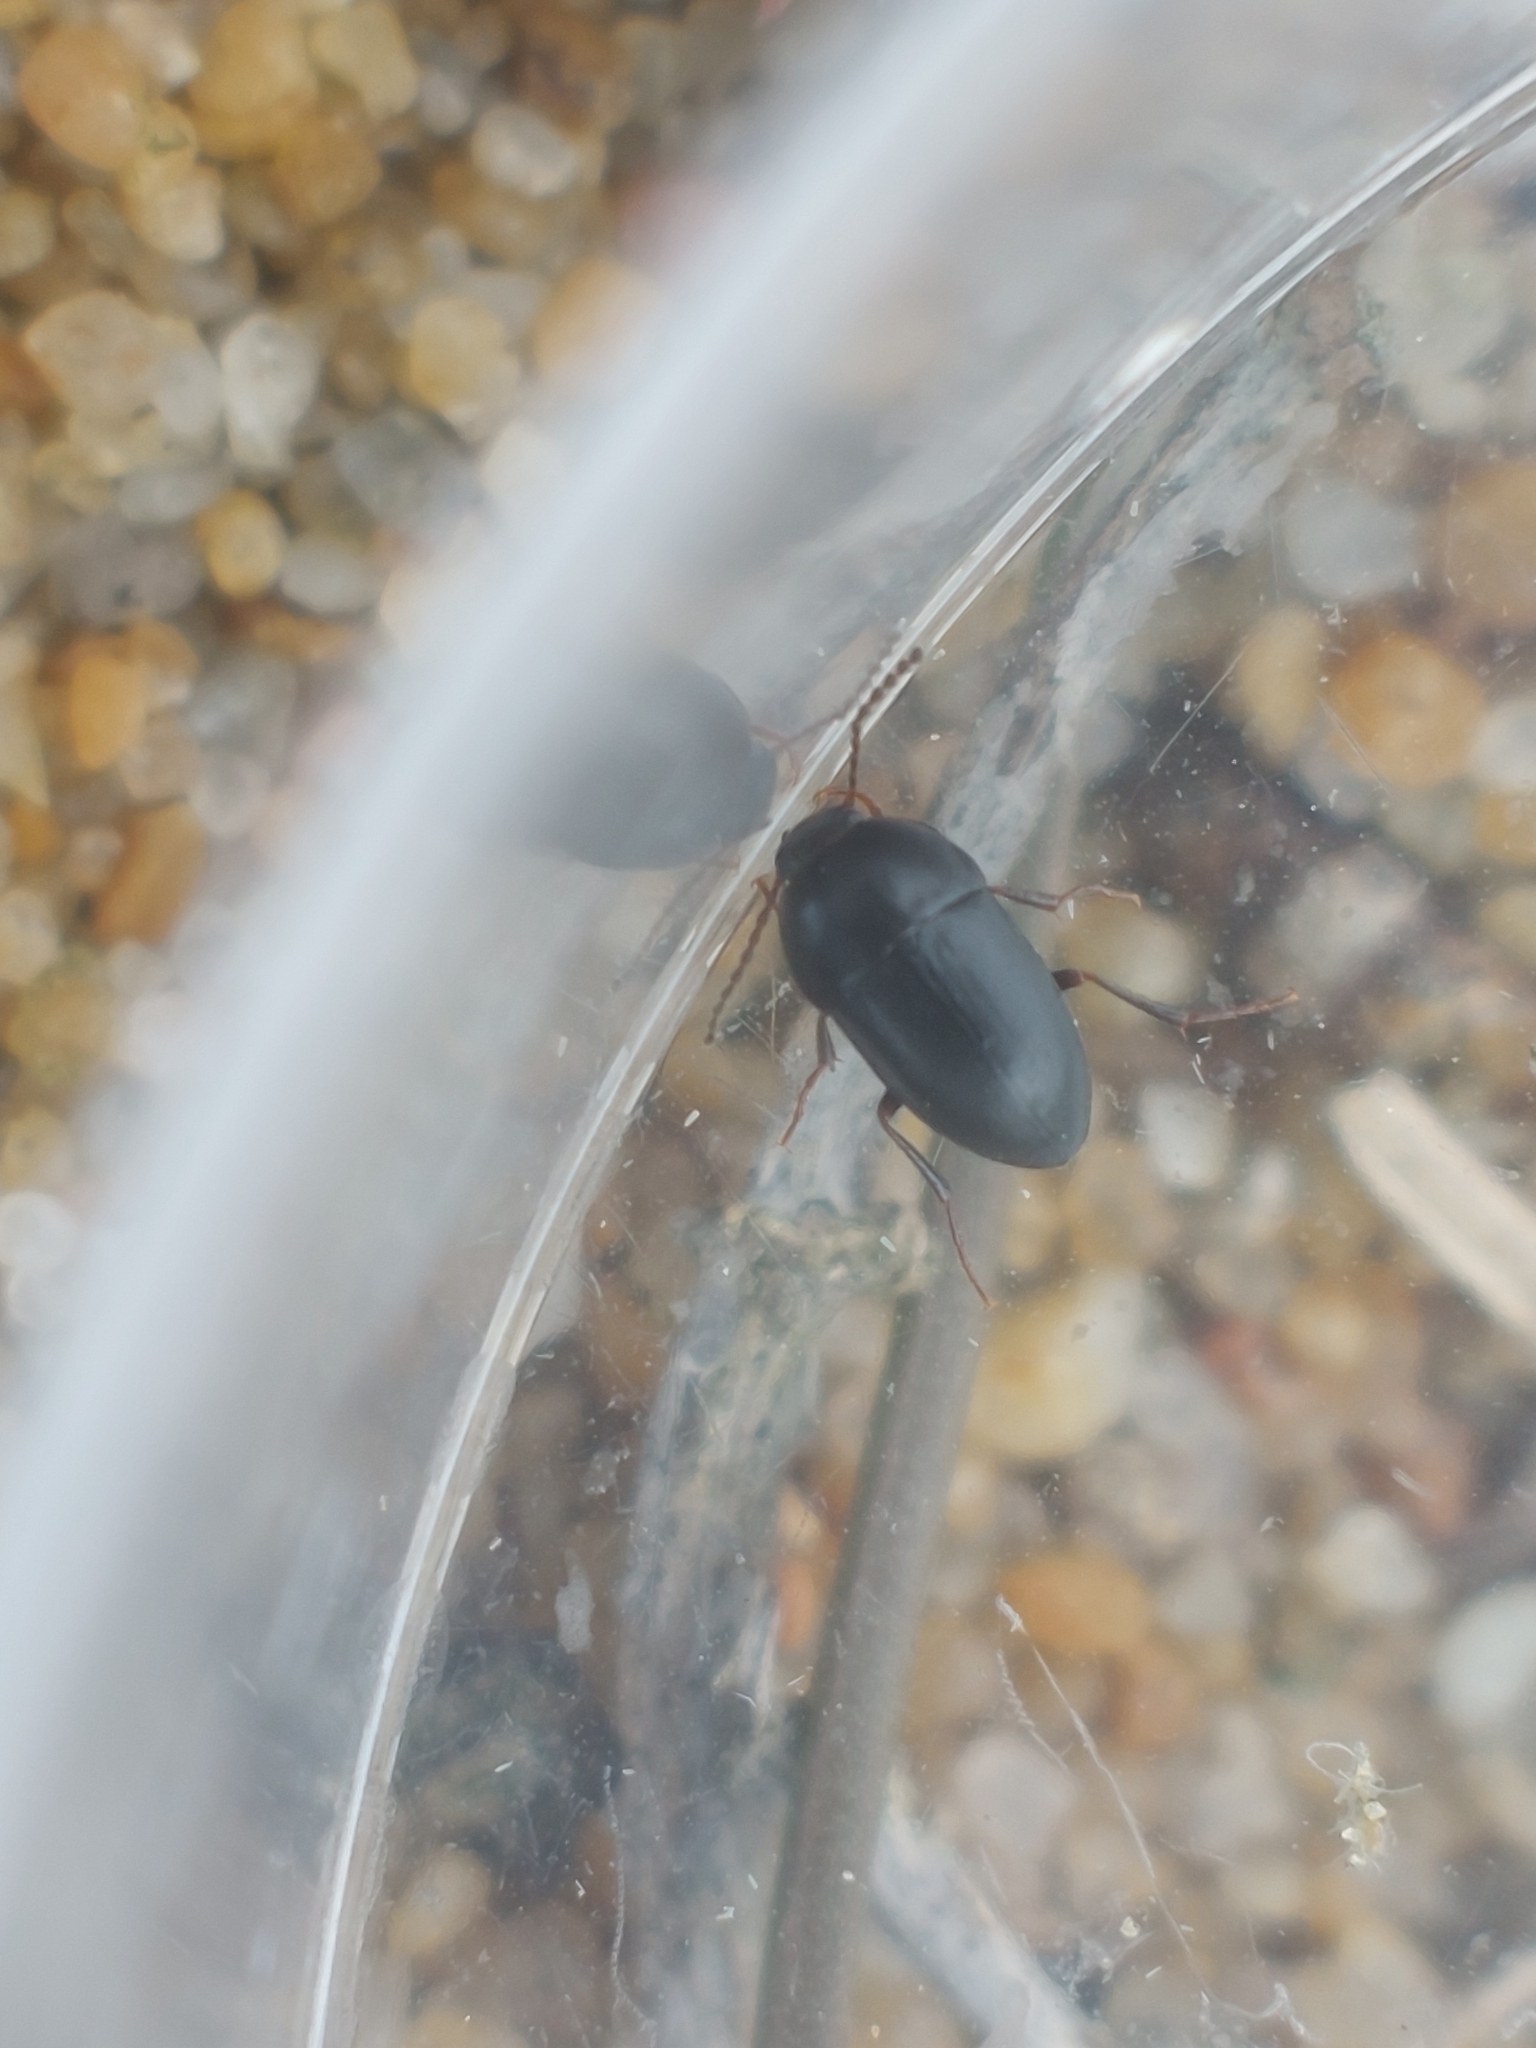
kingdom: Animalia
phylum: Arthropoda
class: Insecta
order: Coleoptera
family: Tenebrionidae
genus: Crypticus
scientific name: Crypticus quisquilius
